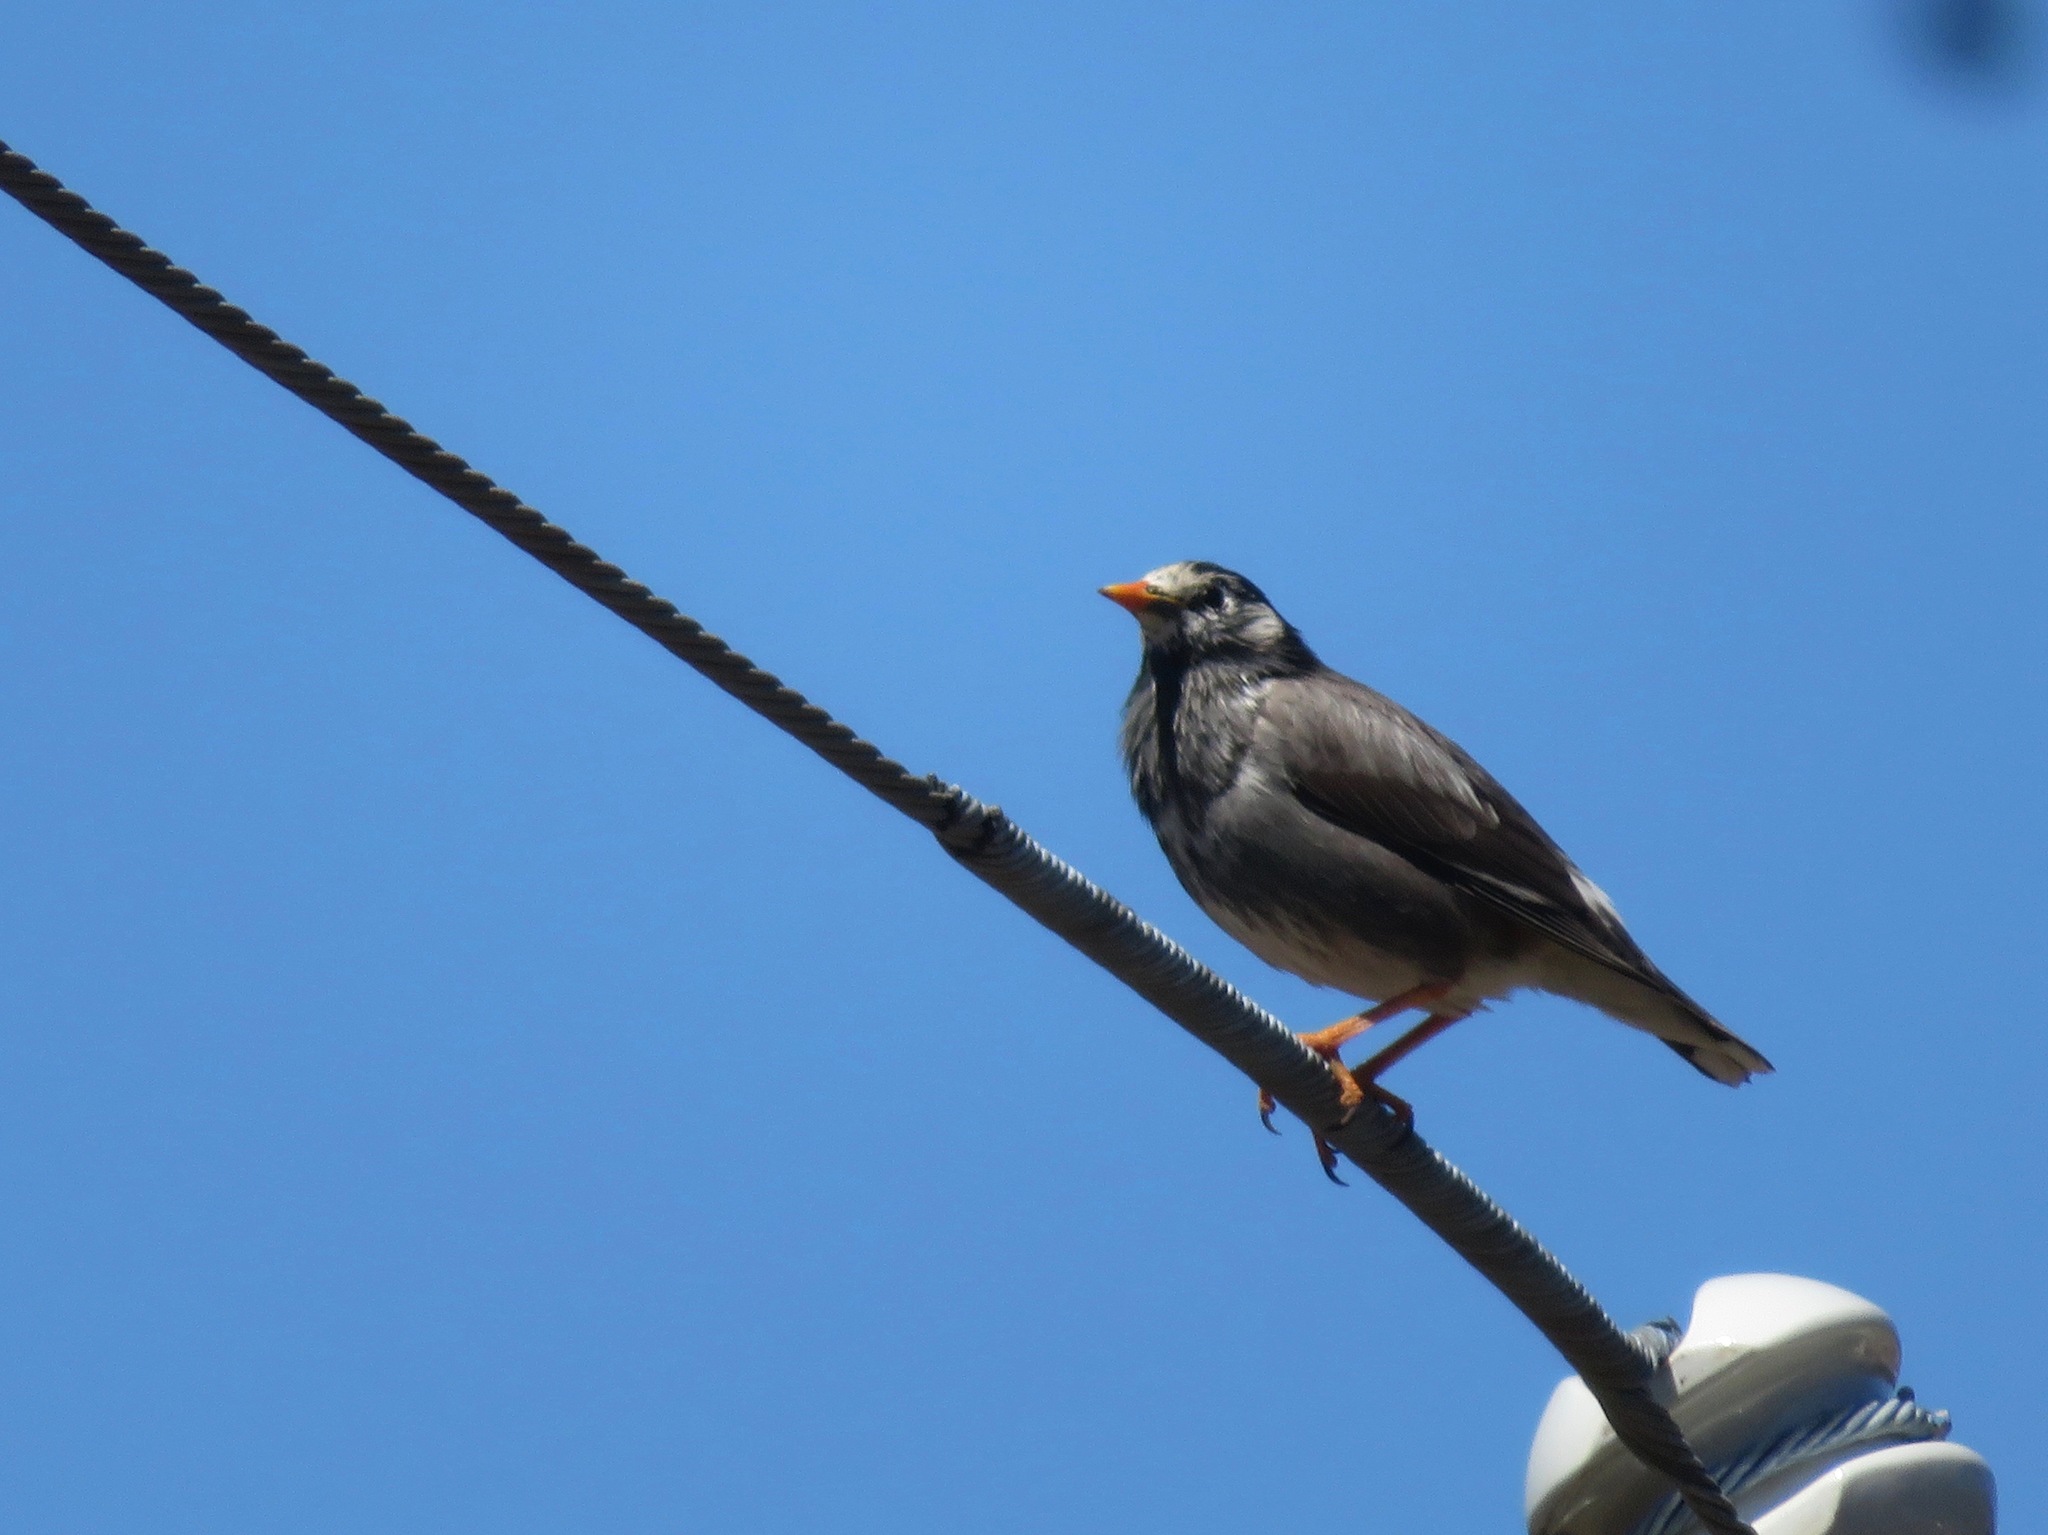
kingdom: Animalia
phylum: Chordata
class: Aves
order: Passeriformes
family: Sturnidae
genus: Spodiopsar
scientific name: Spodiopsar cineraceus
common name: White-cheeked starling
